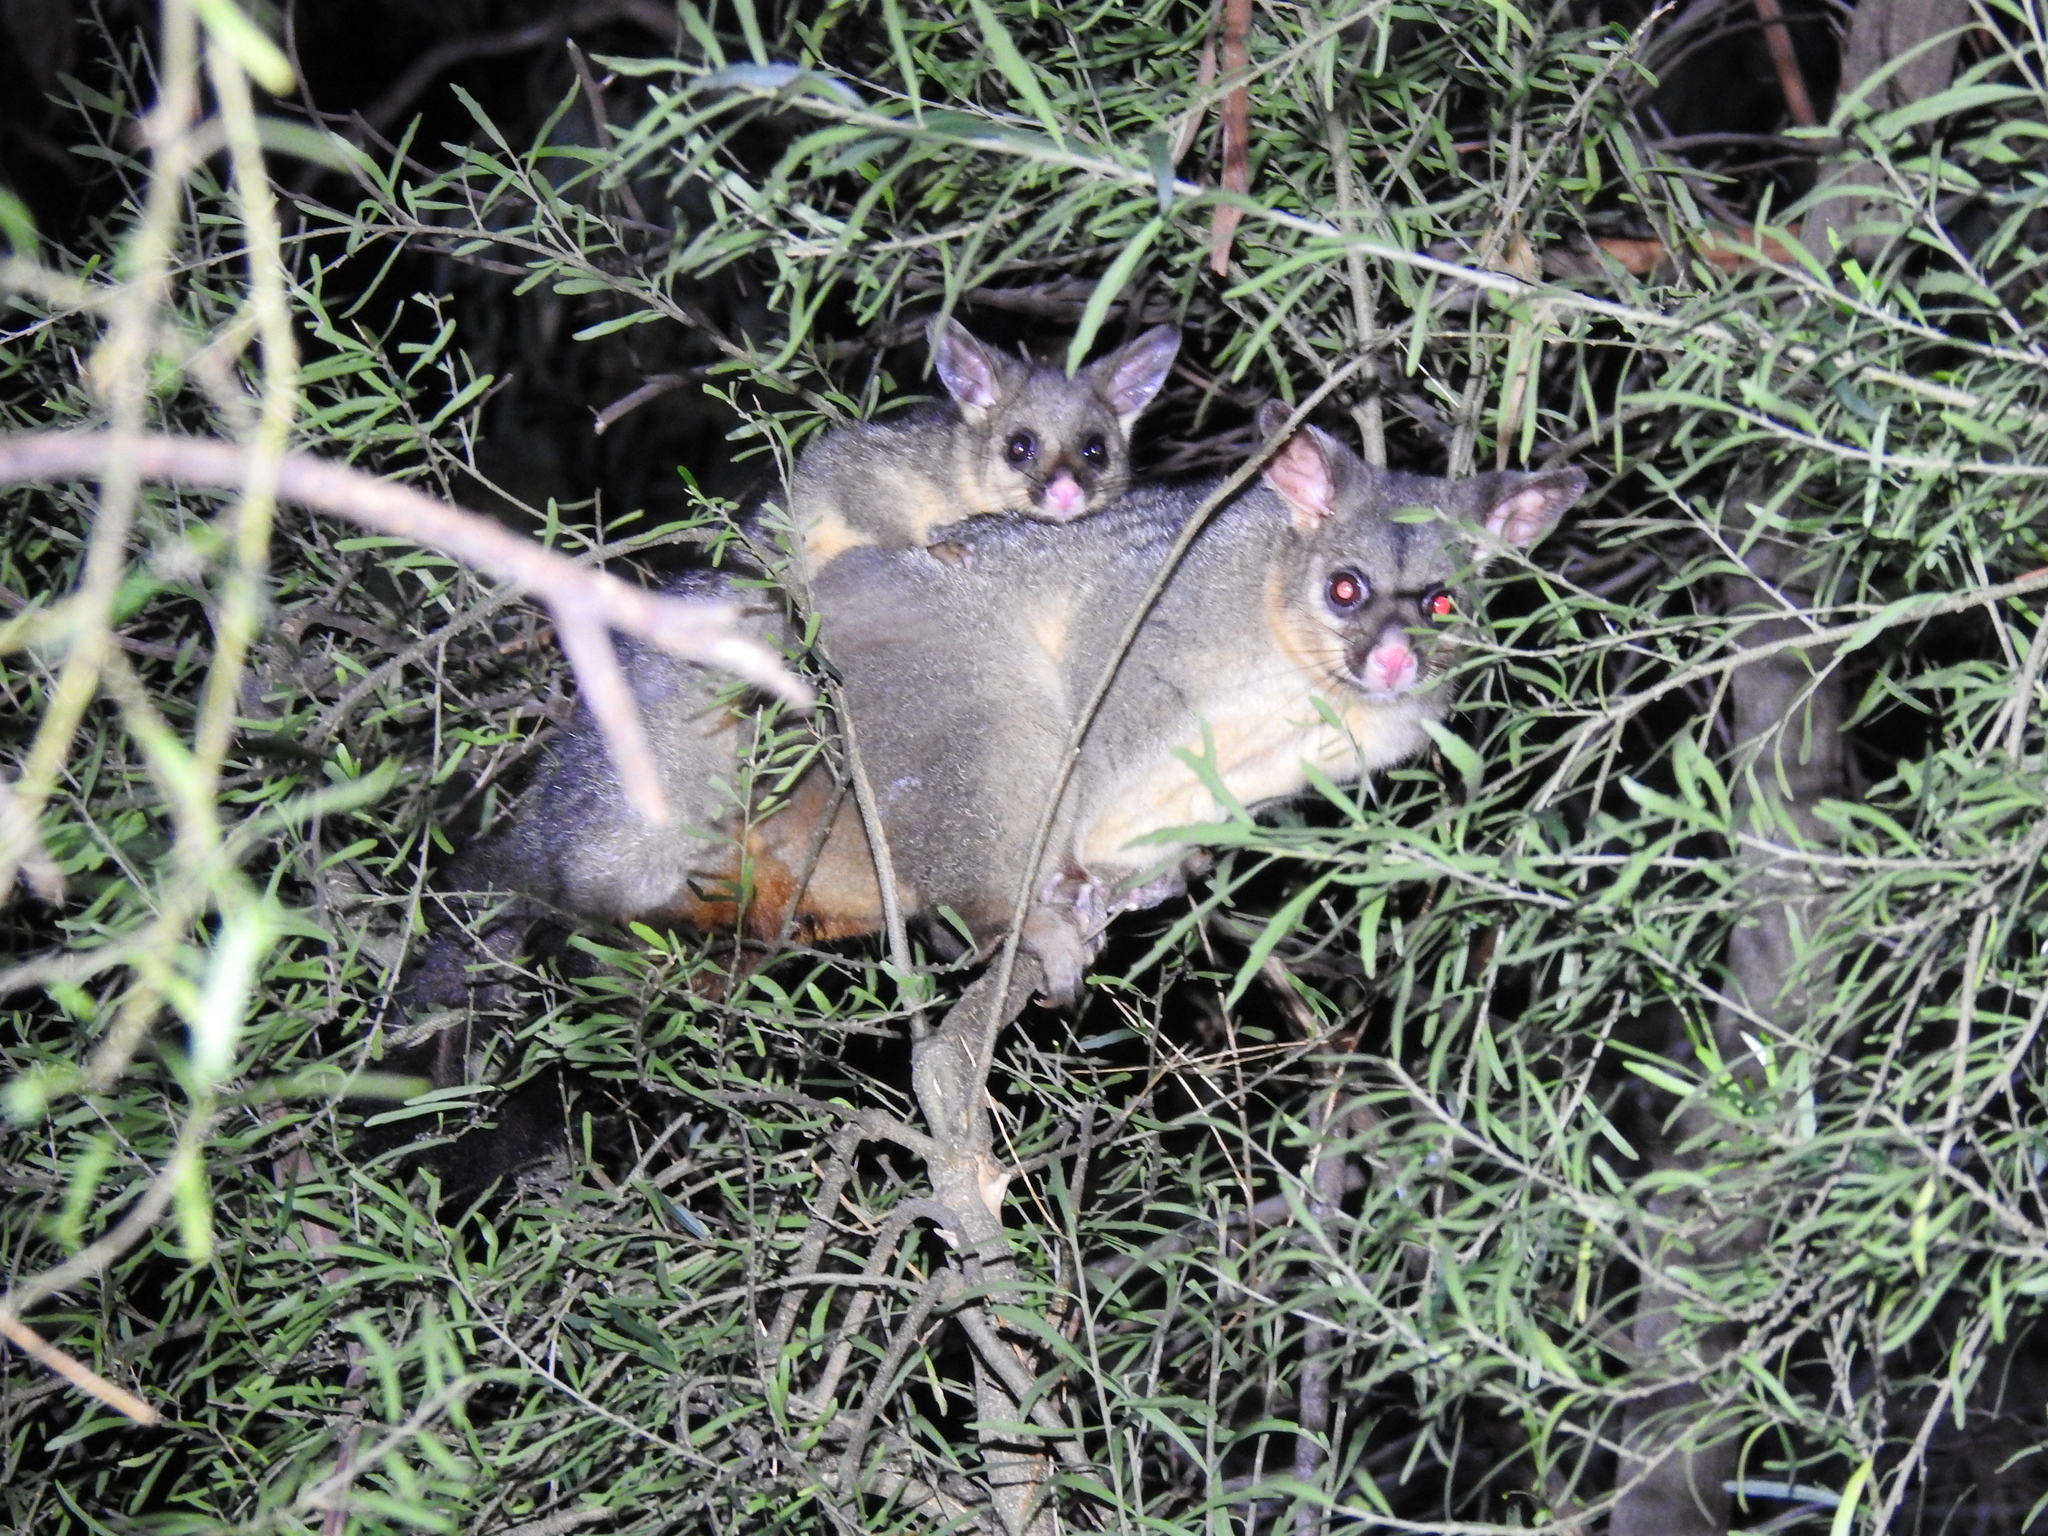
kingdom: Animalia
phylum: Chordata
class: Mammalia
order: Diprotodontia
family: Phalangeridae
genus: Trichosurus
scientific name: Trichosurus vulpecula
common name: Common brushtail
